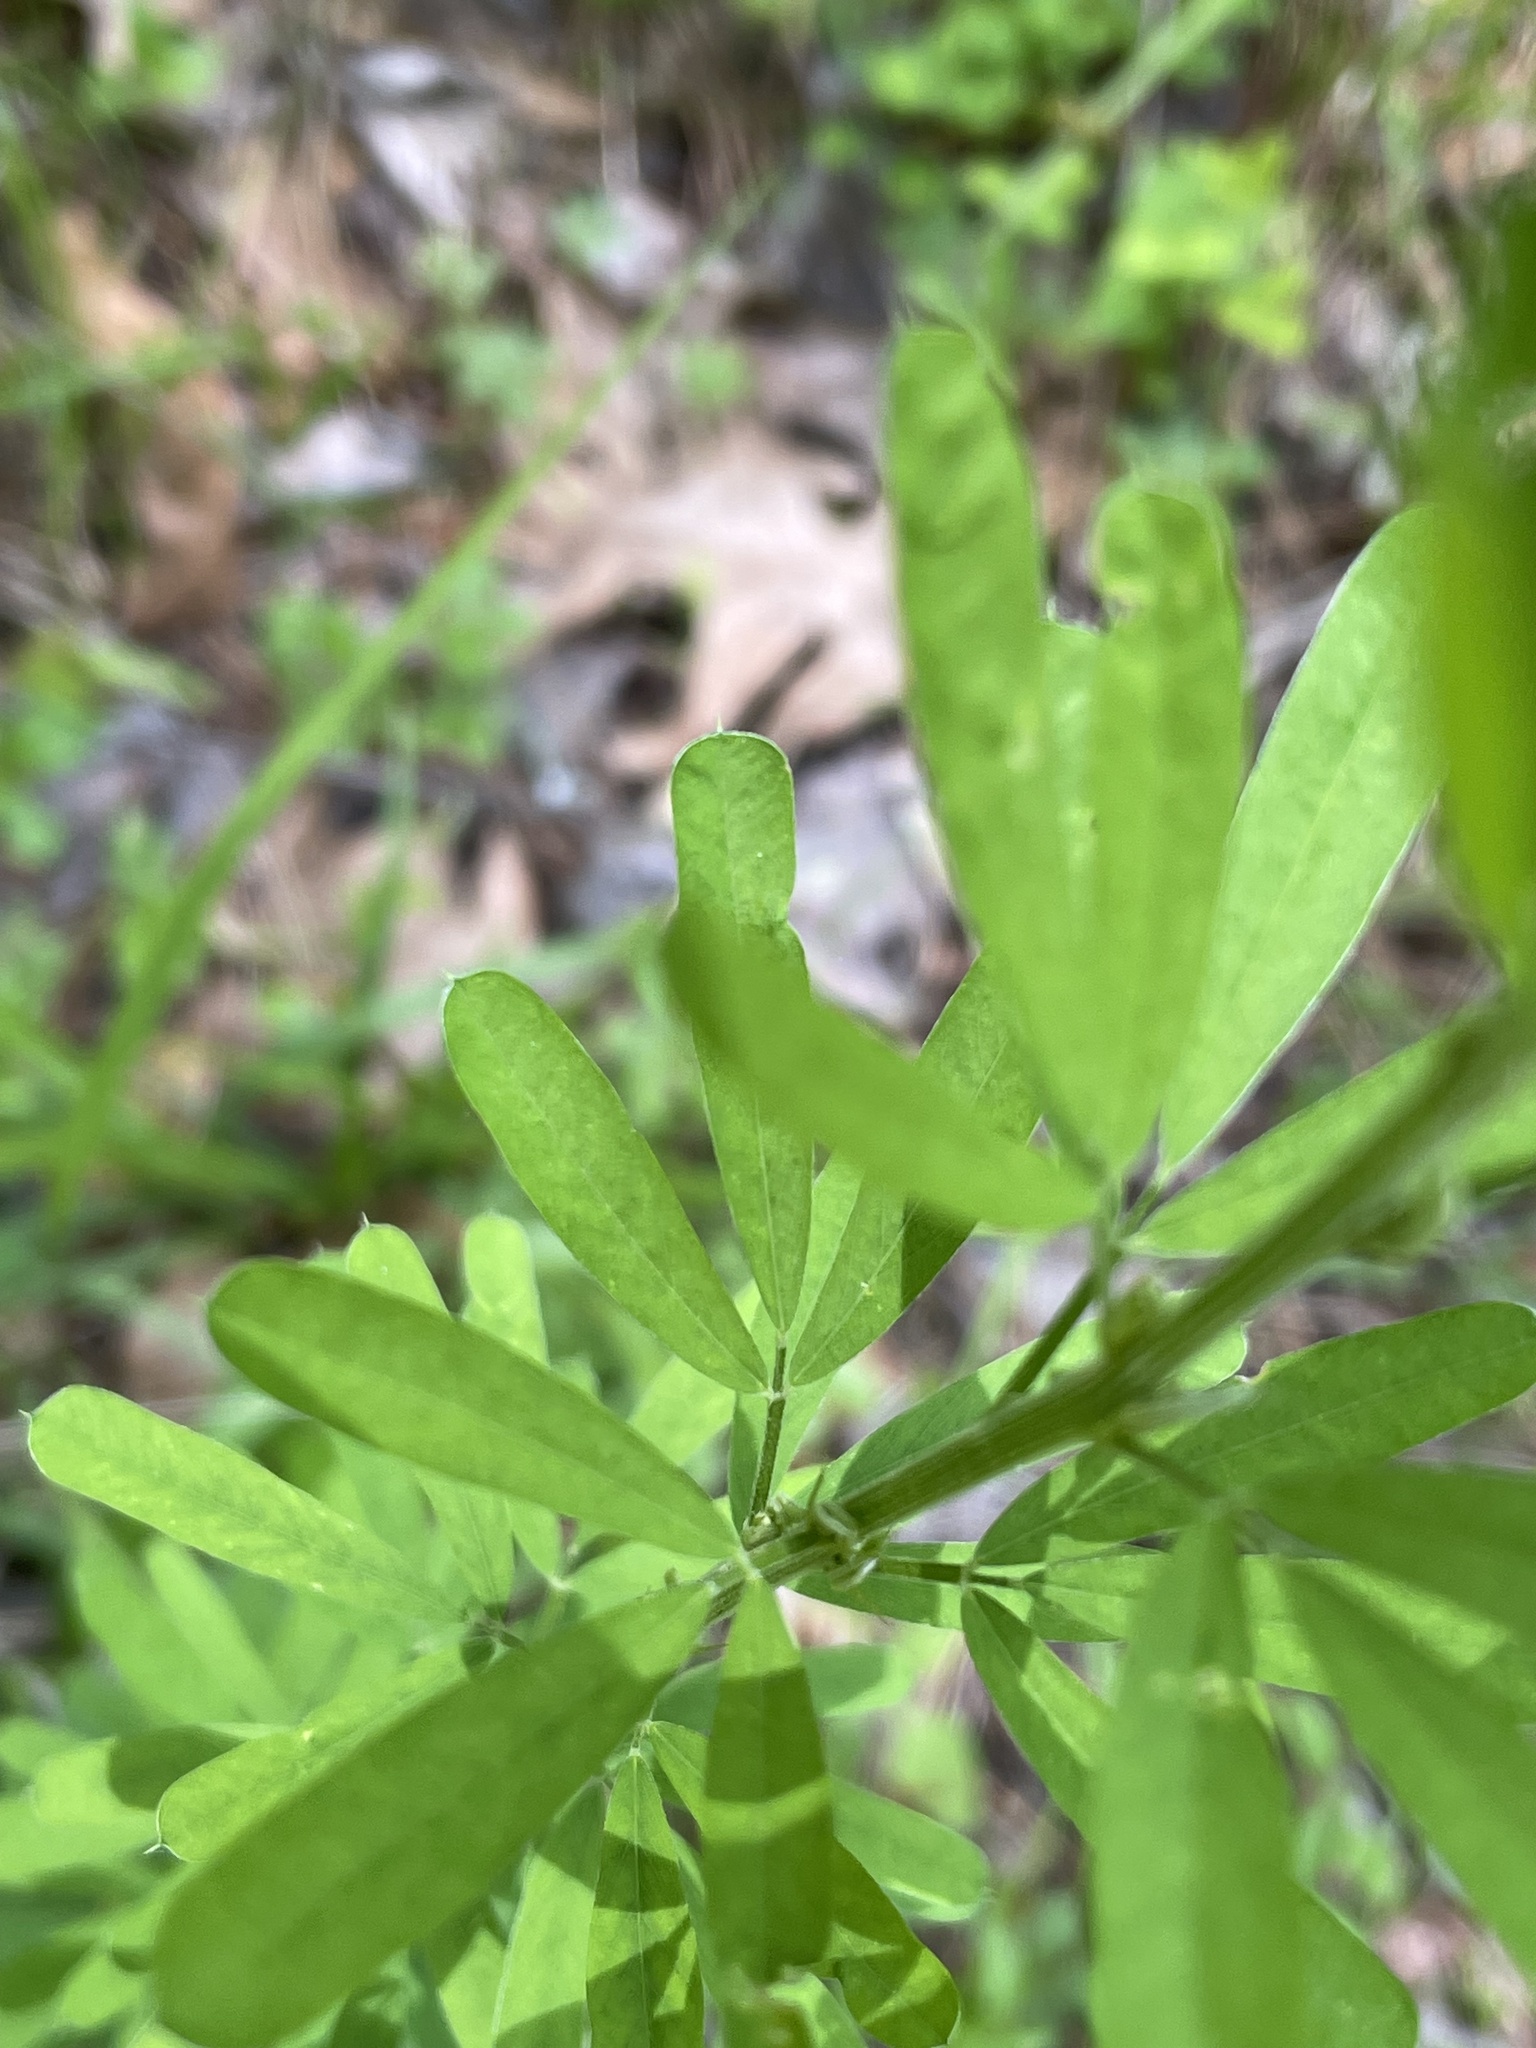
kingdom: Plantae
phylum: Tracheophyta
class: Magnoliopsida
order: Fabales
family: Fabaceae
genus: Lespedeza
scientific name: Lespedeza cuneata
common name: Chinese bush-clover
